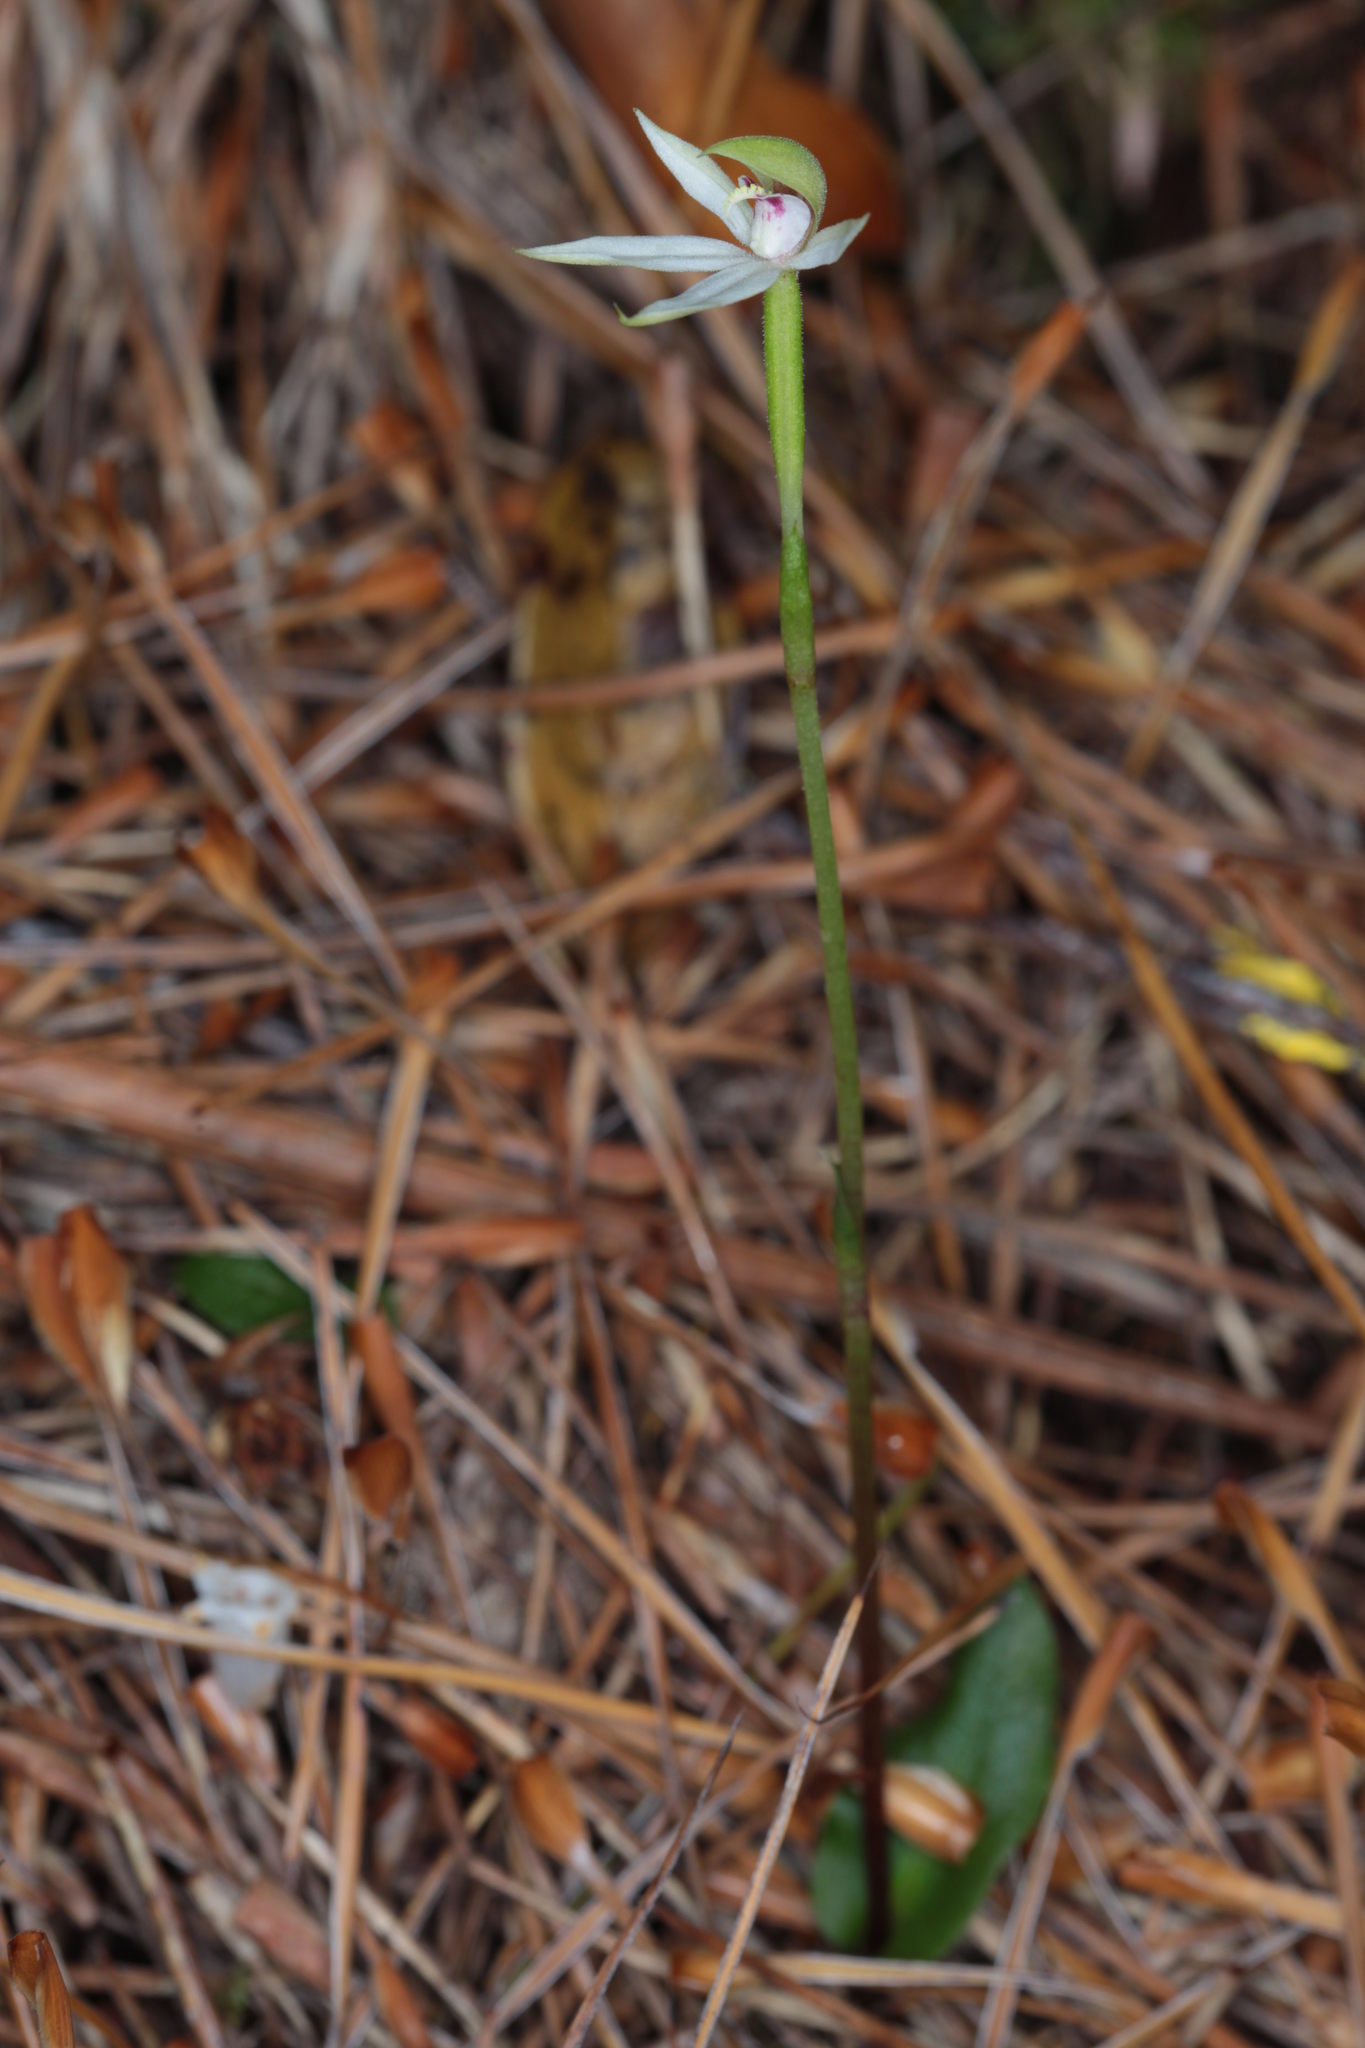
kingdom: Plantae
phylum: Tracheophyta
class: Liliopsida
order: Asparagales
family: Orchidaceae
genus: Adenochilus
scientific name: Adenochilus gracilis
